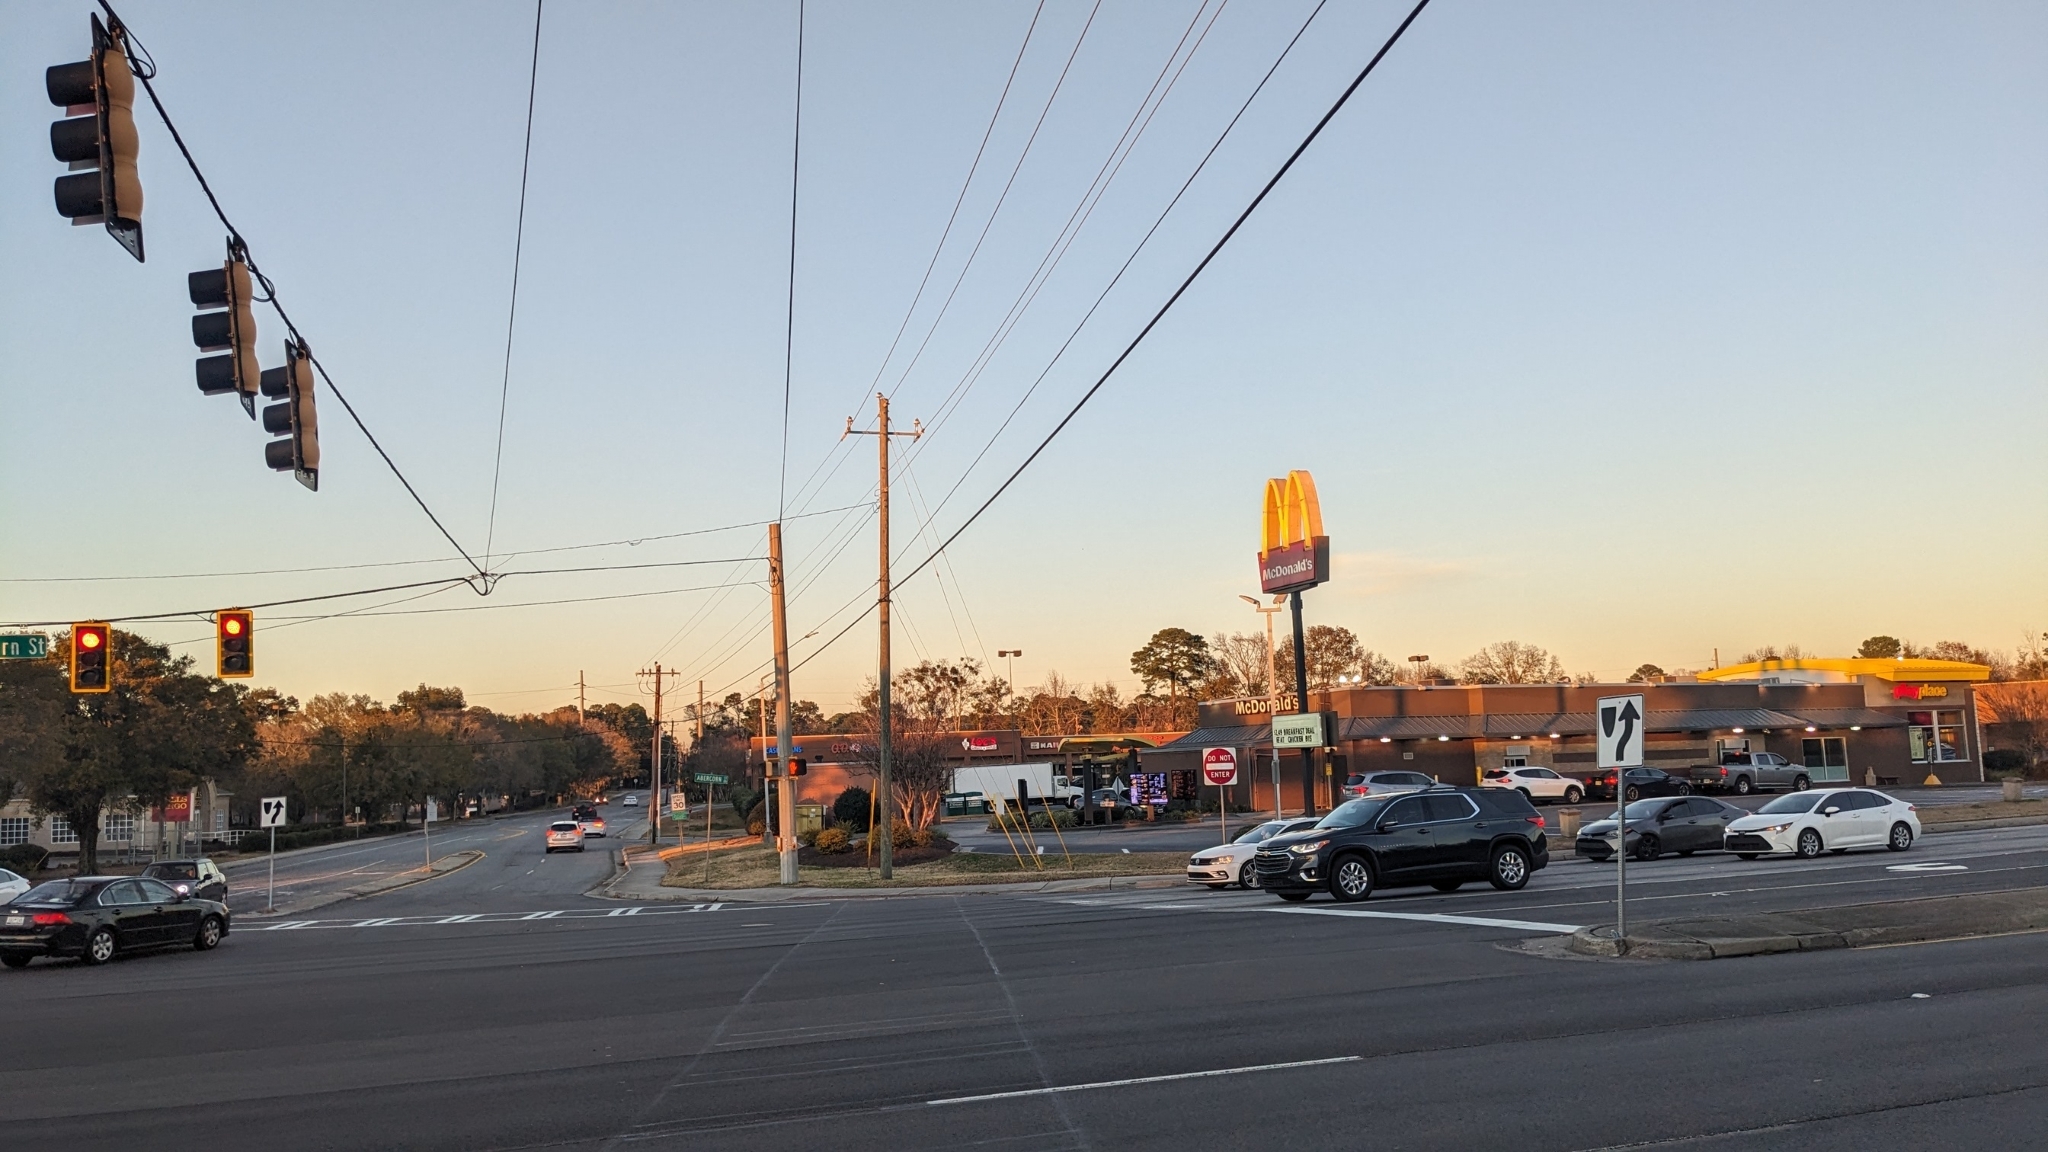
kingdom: Plantae
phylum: Tracheophyta
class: Magnoliopsida
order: Santalales
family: Viscaceae
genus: Phoradendron
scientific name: Phoradendron leucarpum
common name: Pacific mistletoe
